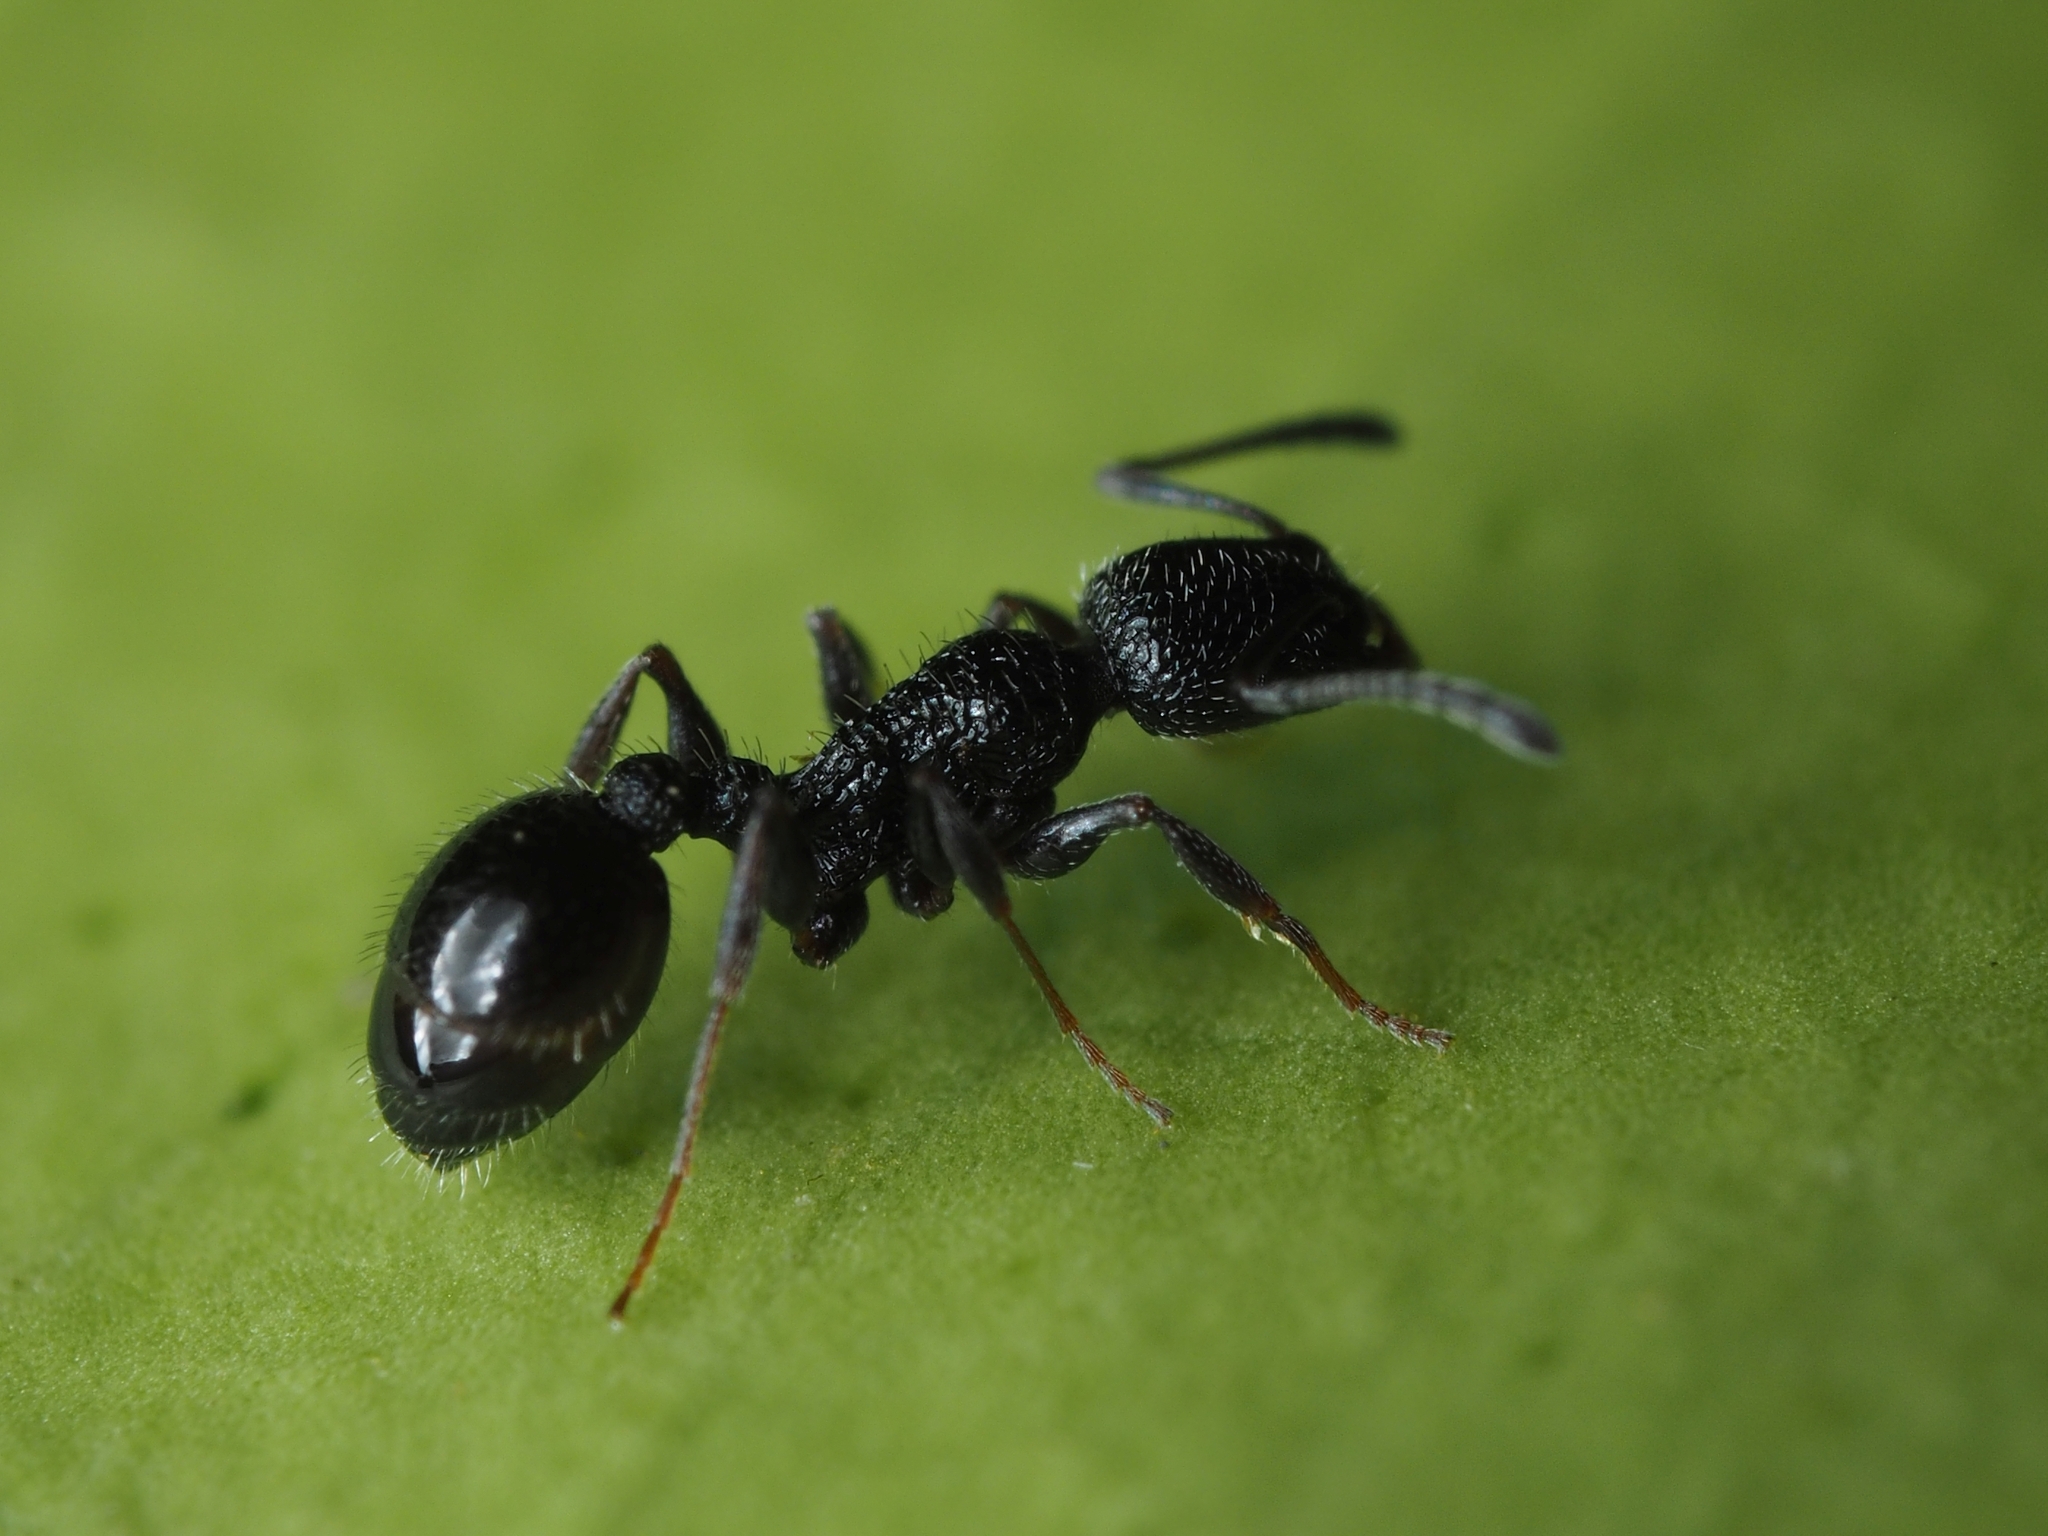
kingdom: Animalia
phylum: Arthropoda
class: Insecta
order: Hymenoptera
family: Formicidae
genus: Temnothorax
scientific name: Temnothorax
